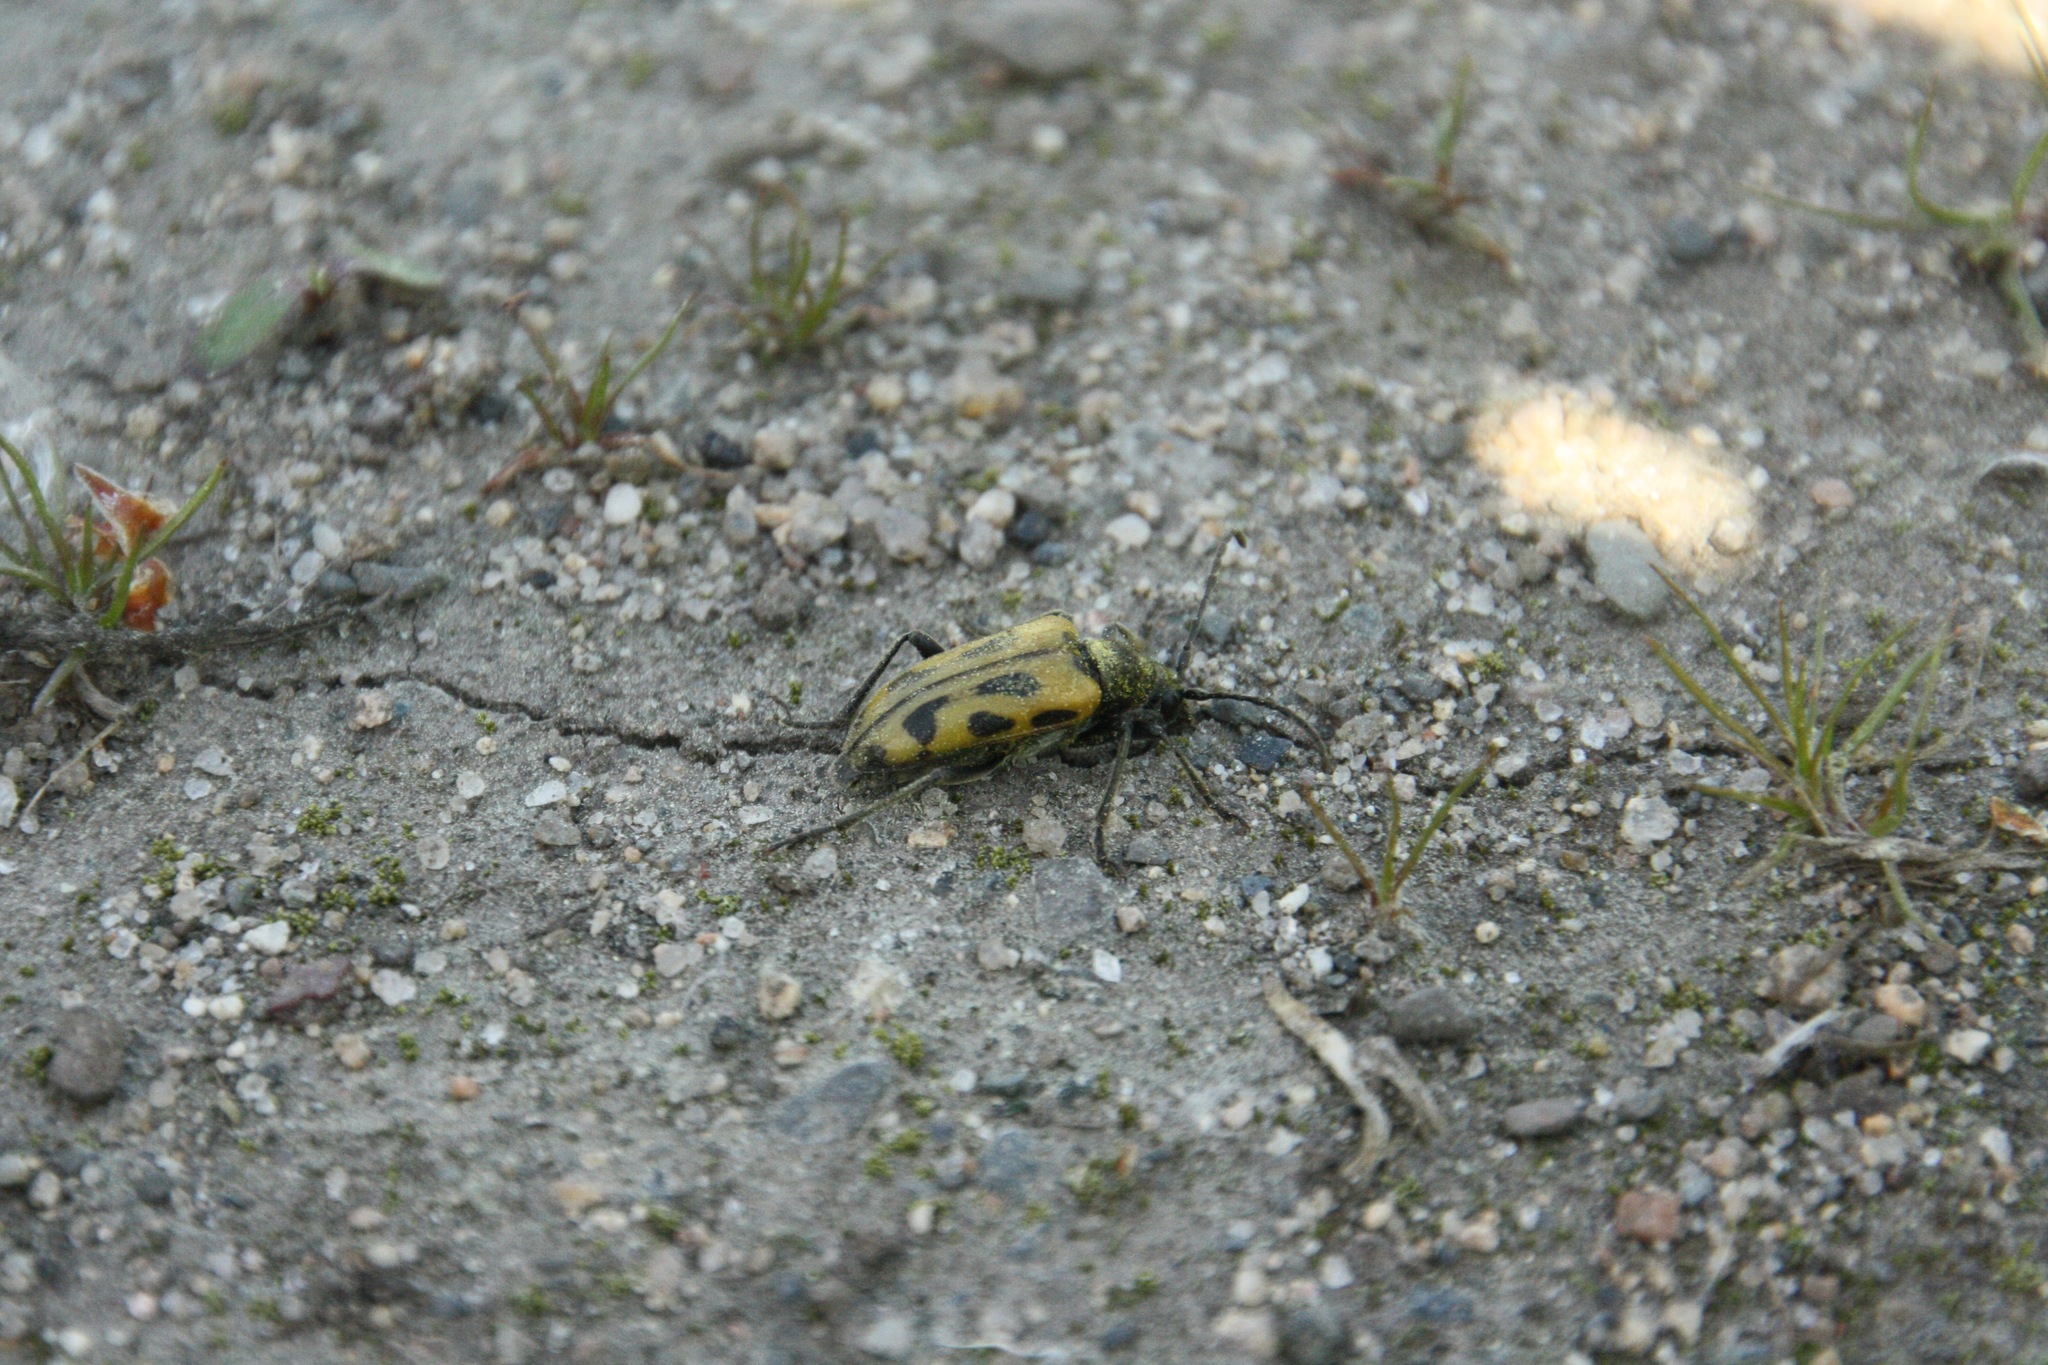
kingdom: Animalia
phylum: Arthropoda
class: Insecta
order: Coleoptera
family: Cerambycidae
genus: Brachyta
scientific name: Brachyta interrogationis
